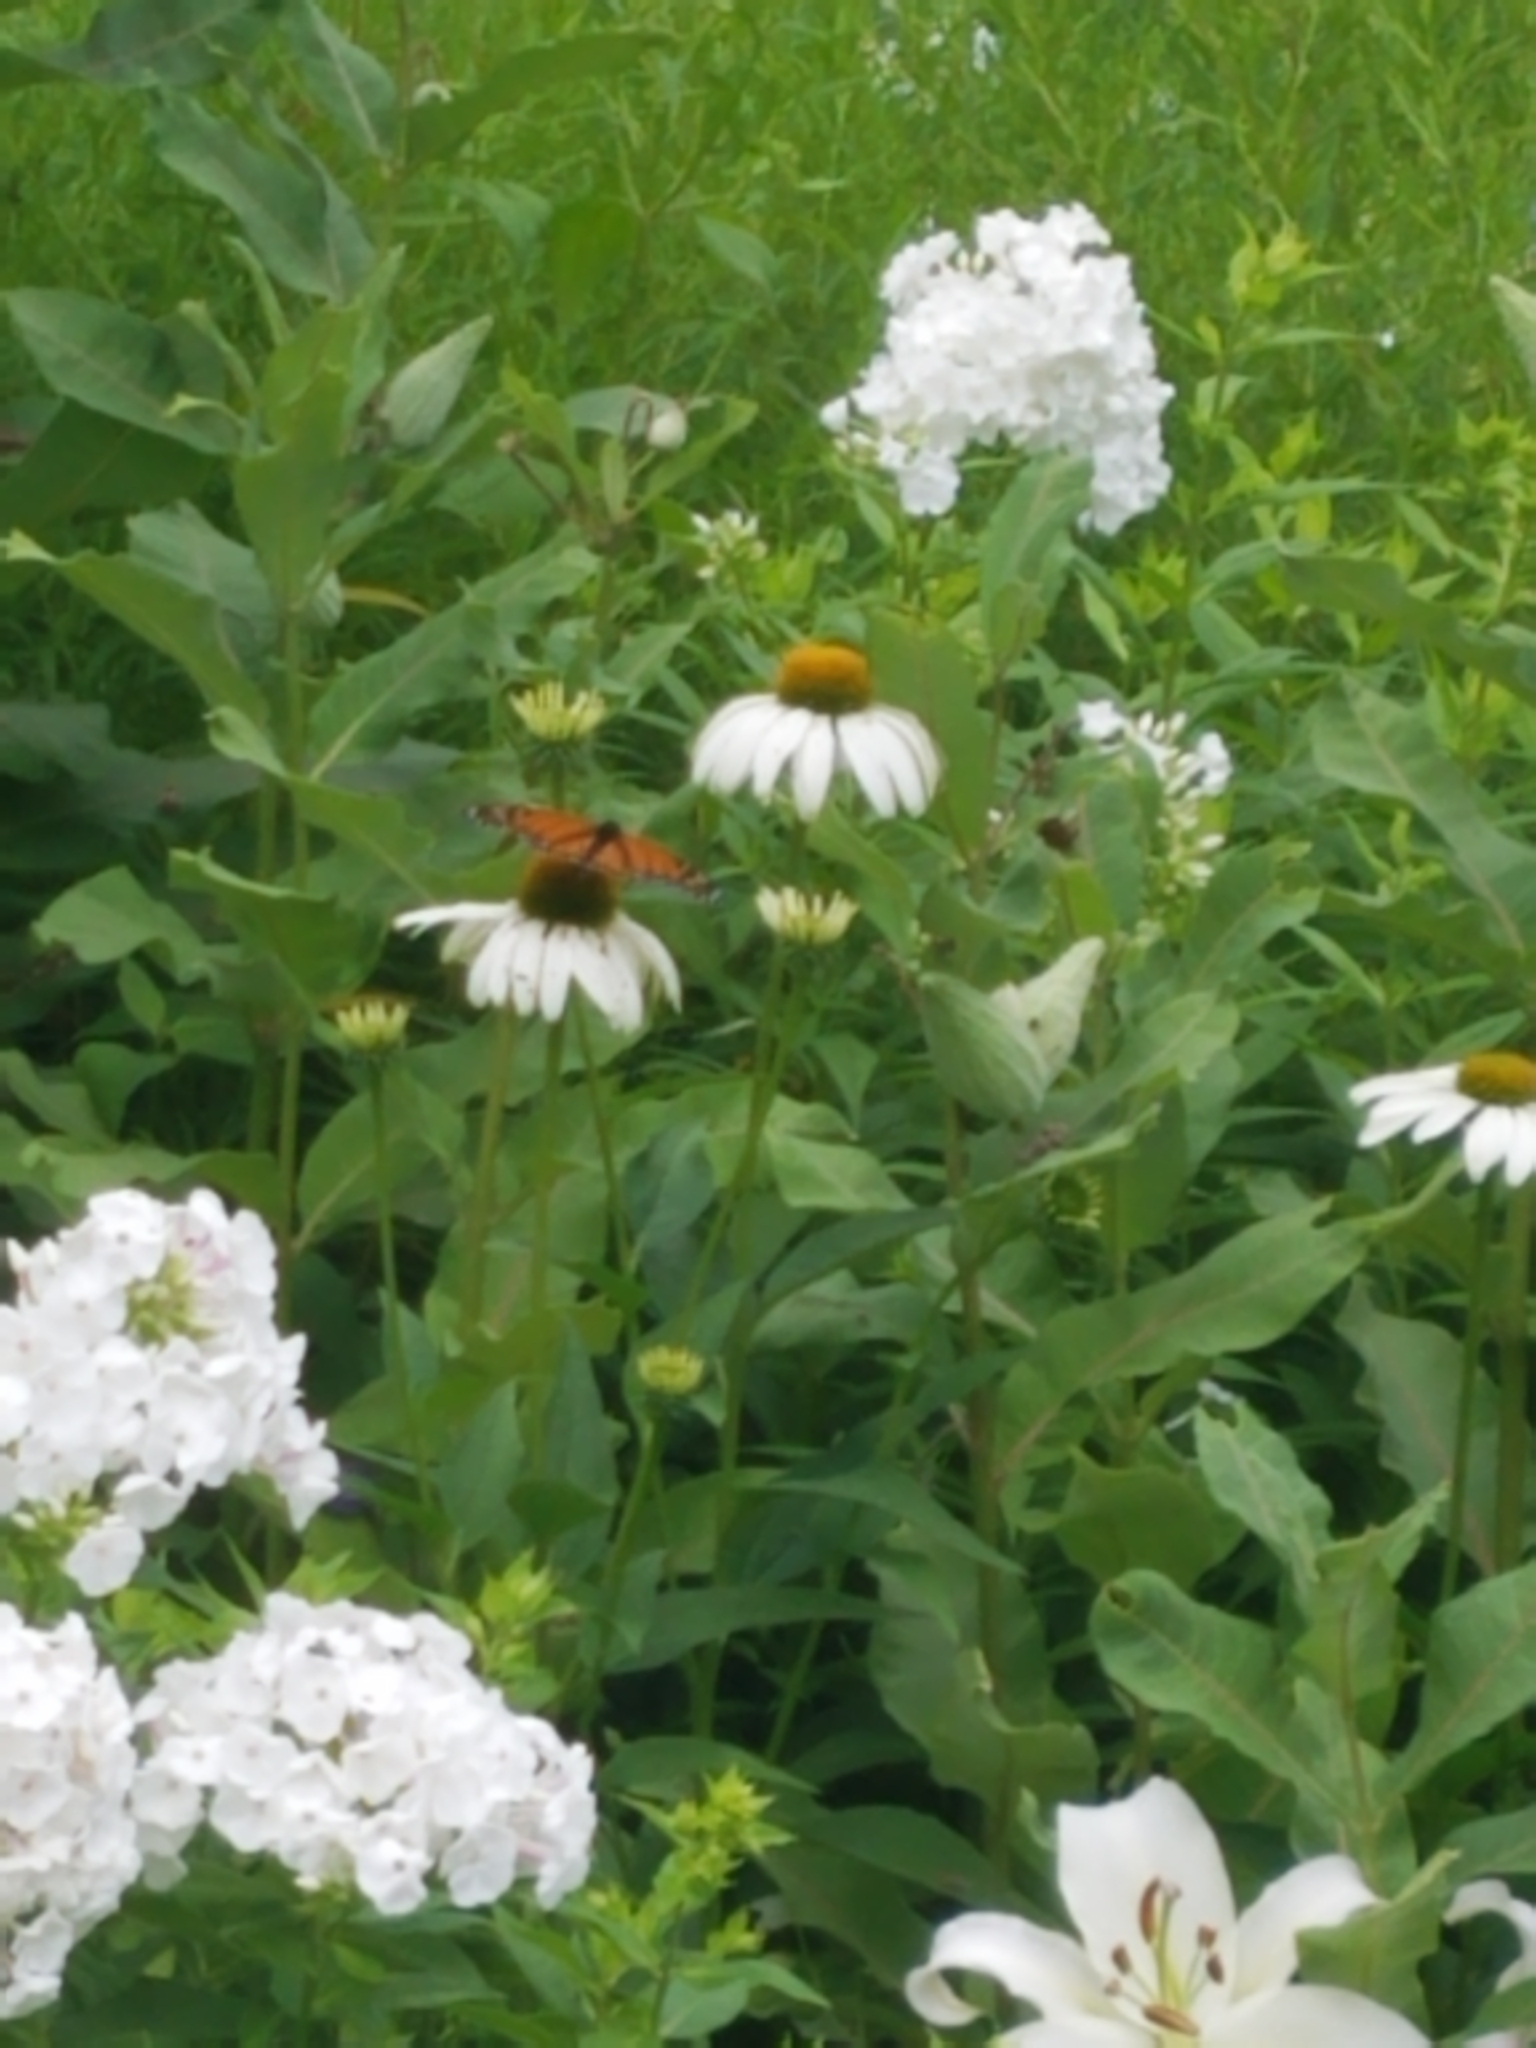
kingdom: Animalia
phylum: Arthropoda
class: Insecta
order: Lepidoptera
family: Nymphalidae
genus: Danaus
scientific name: Danaus plexippus
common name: Monarch
